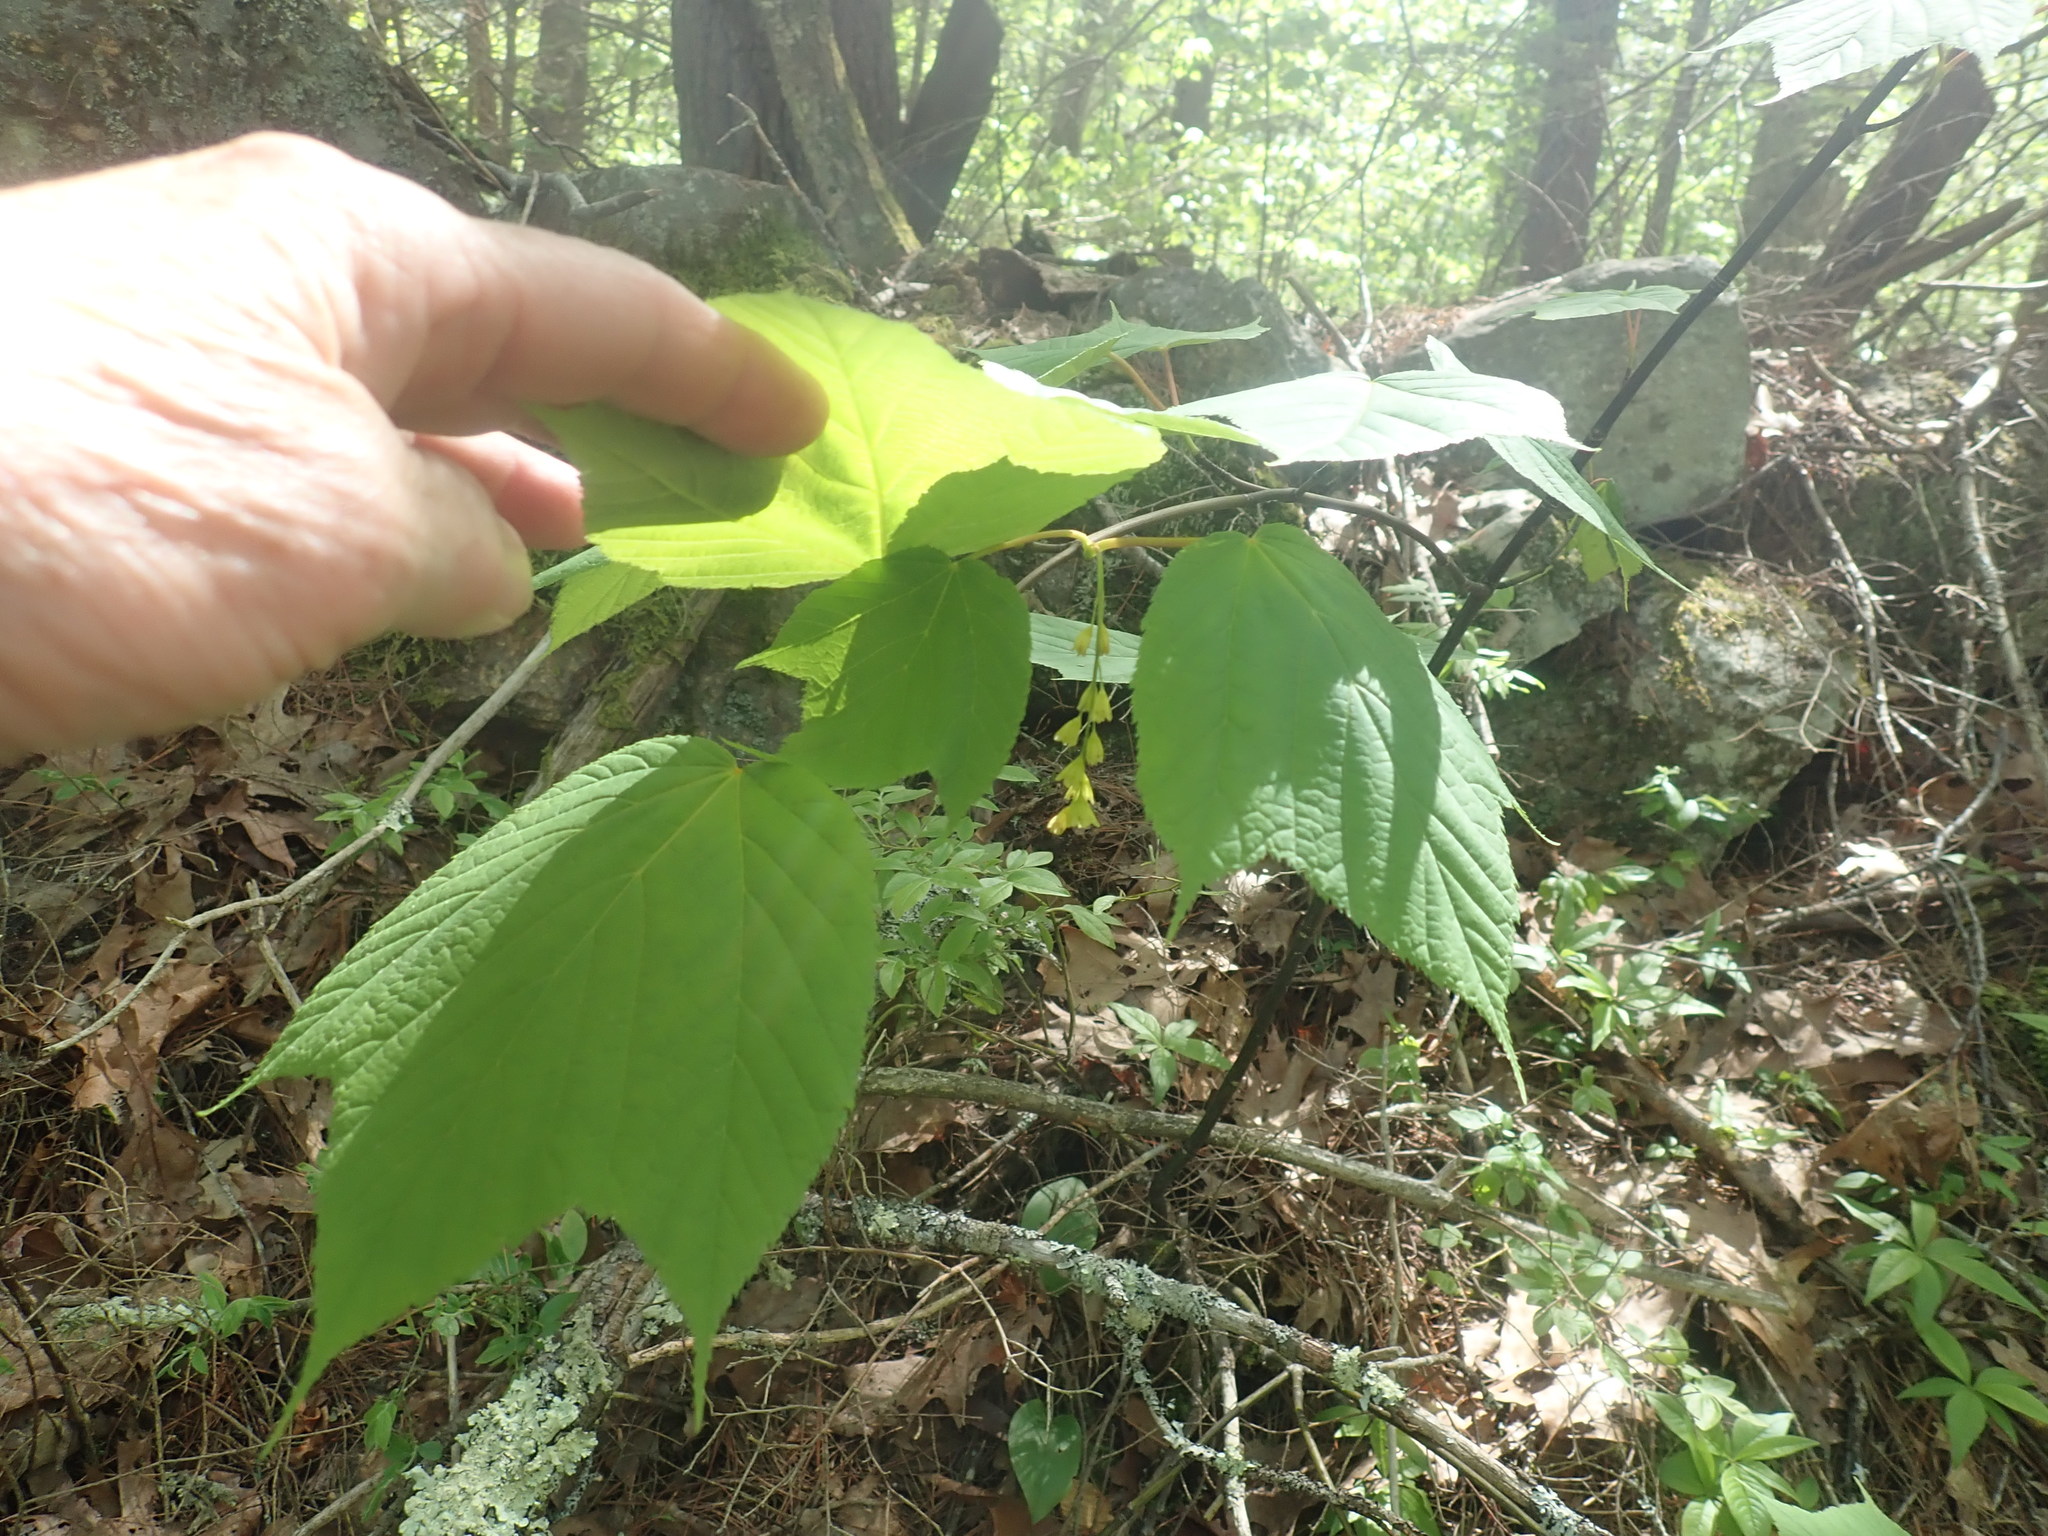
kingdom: Plantae
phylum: Tracheophyta
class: Magnoliopsida
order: Sapindales
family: Sapindaceae
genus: Acer
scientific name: Acer pensylvanicum
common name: Moosewood
